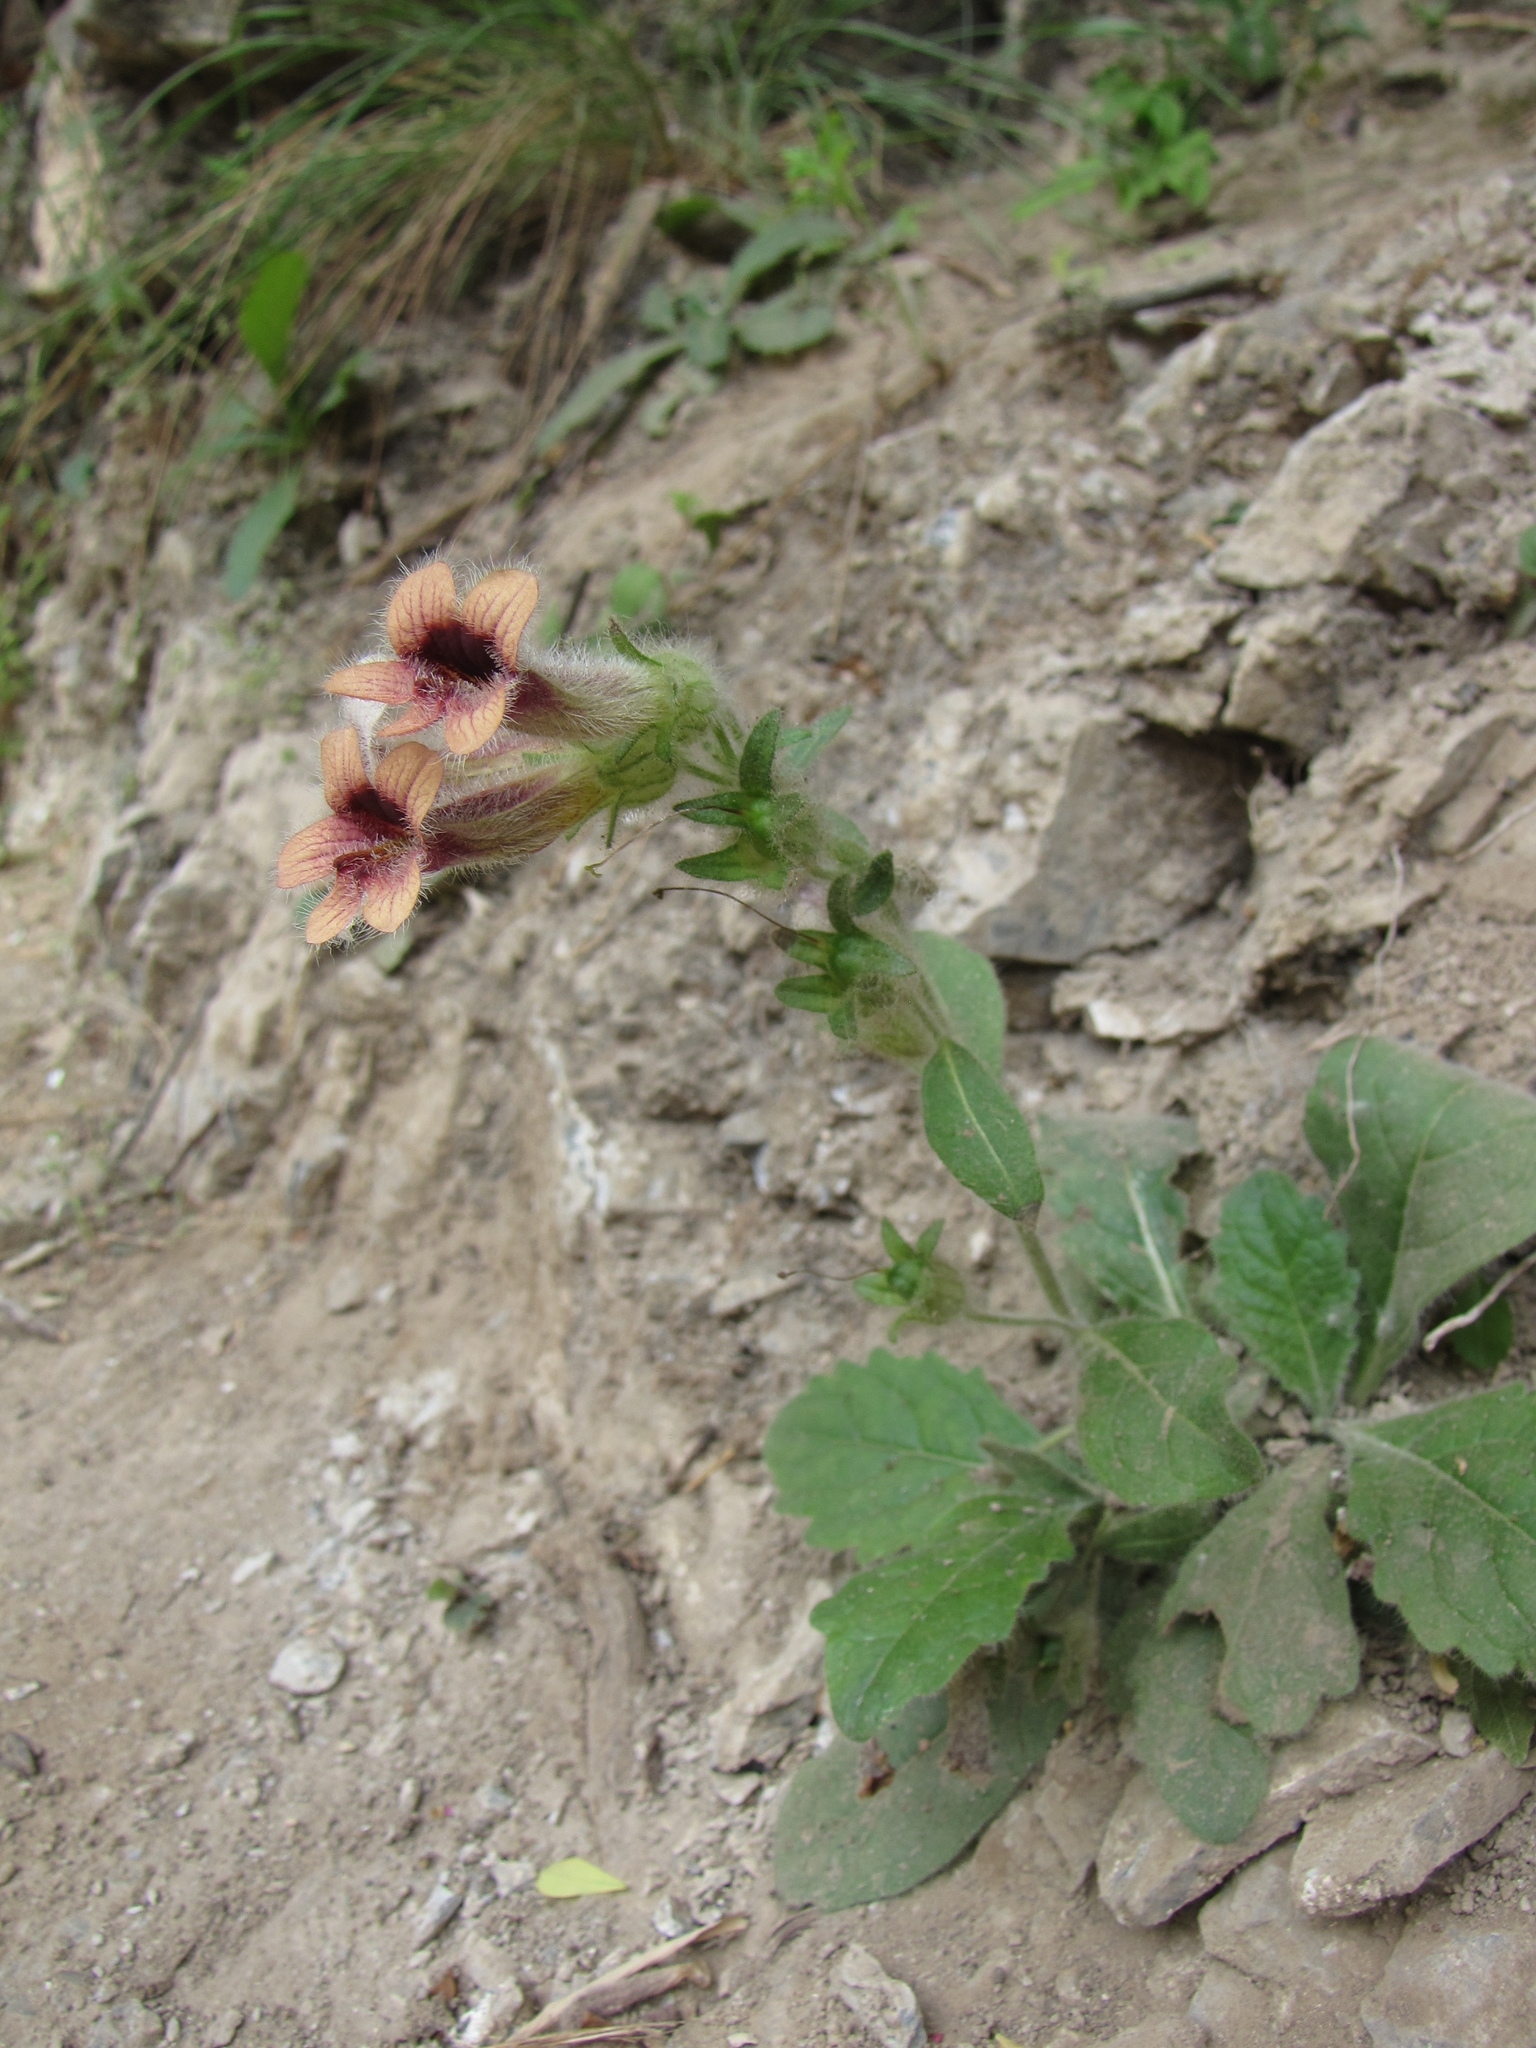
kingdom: Plantae
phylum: Tracheophyta
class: Magnoliopsida
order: Lamiales
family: Rehmanniaceae
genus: Rehmannia
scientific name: Rehmannia glutinosa
